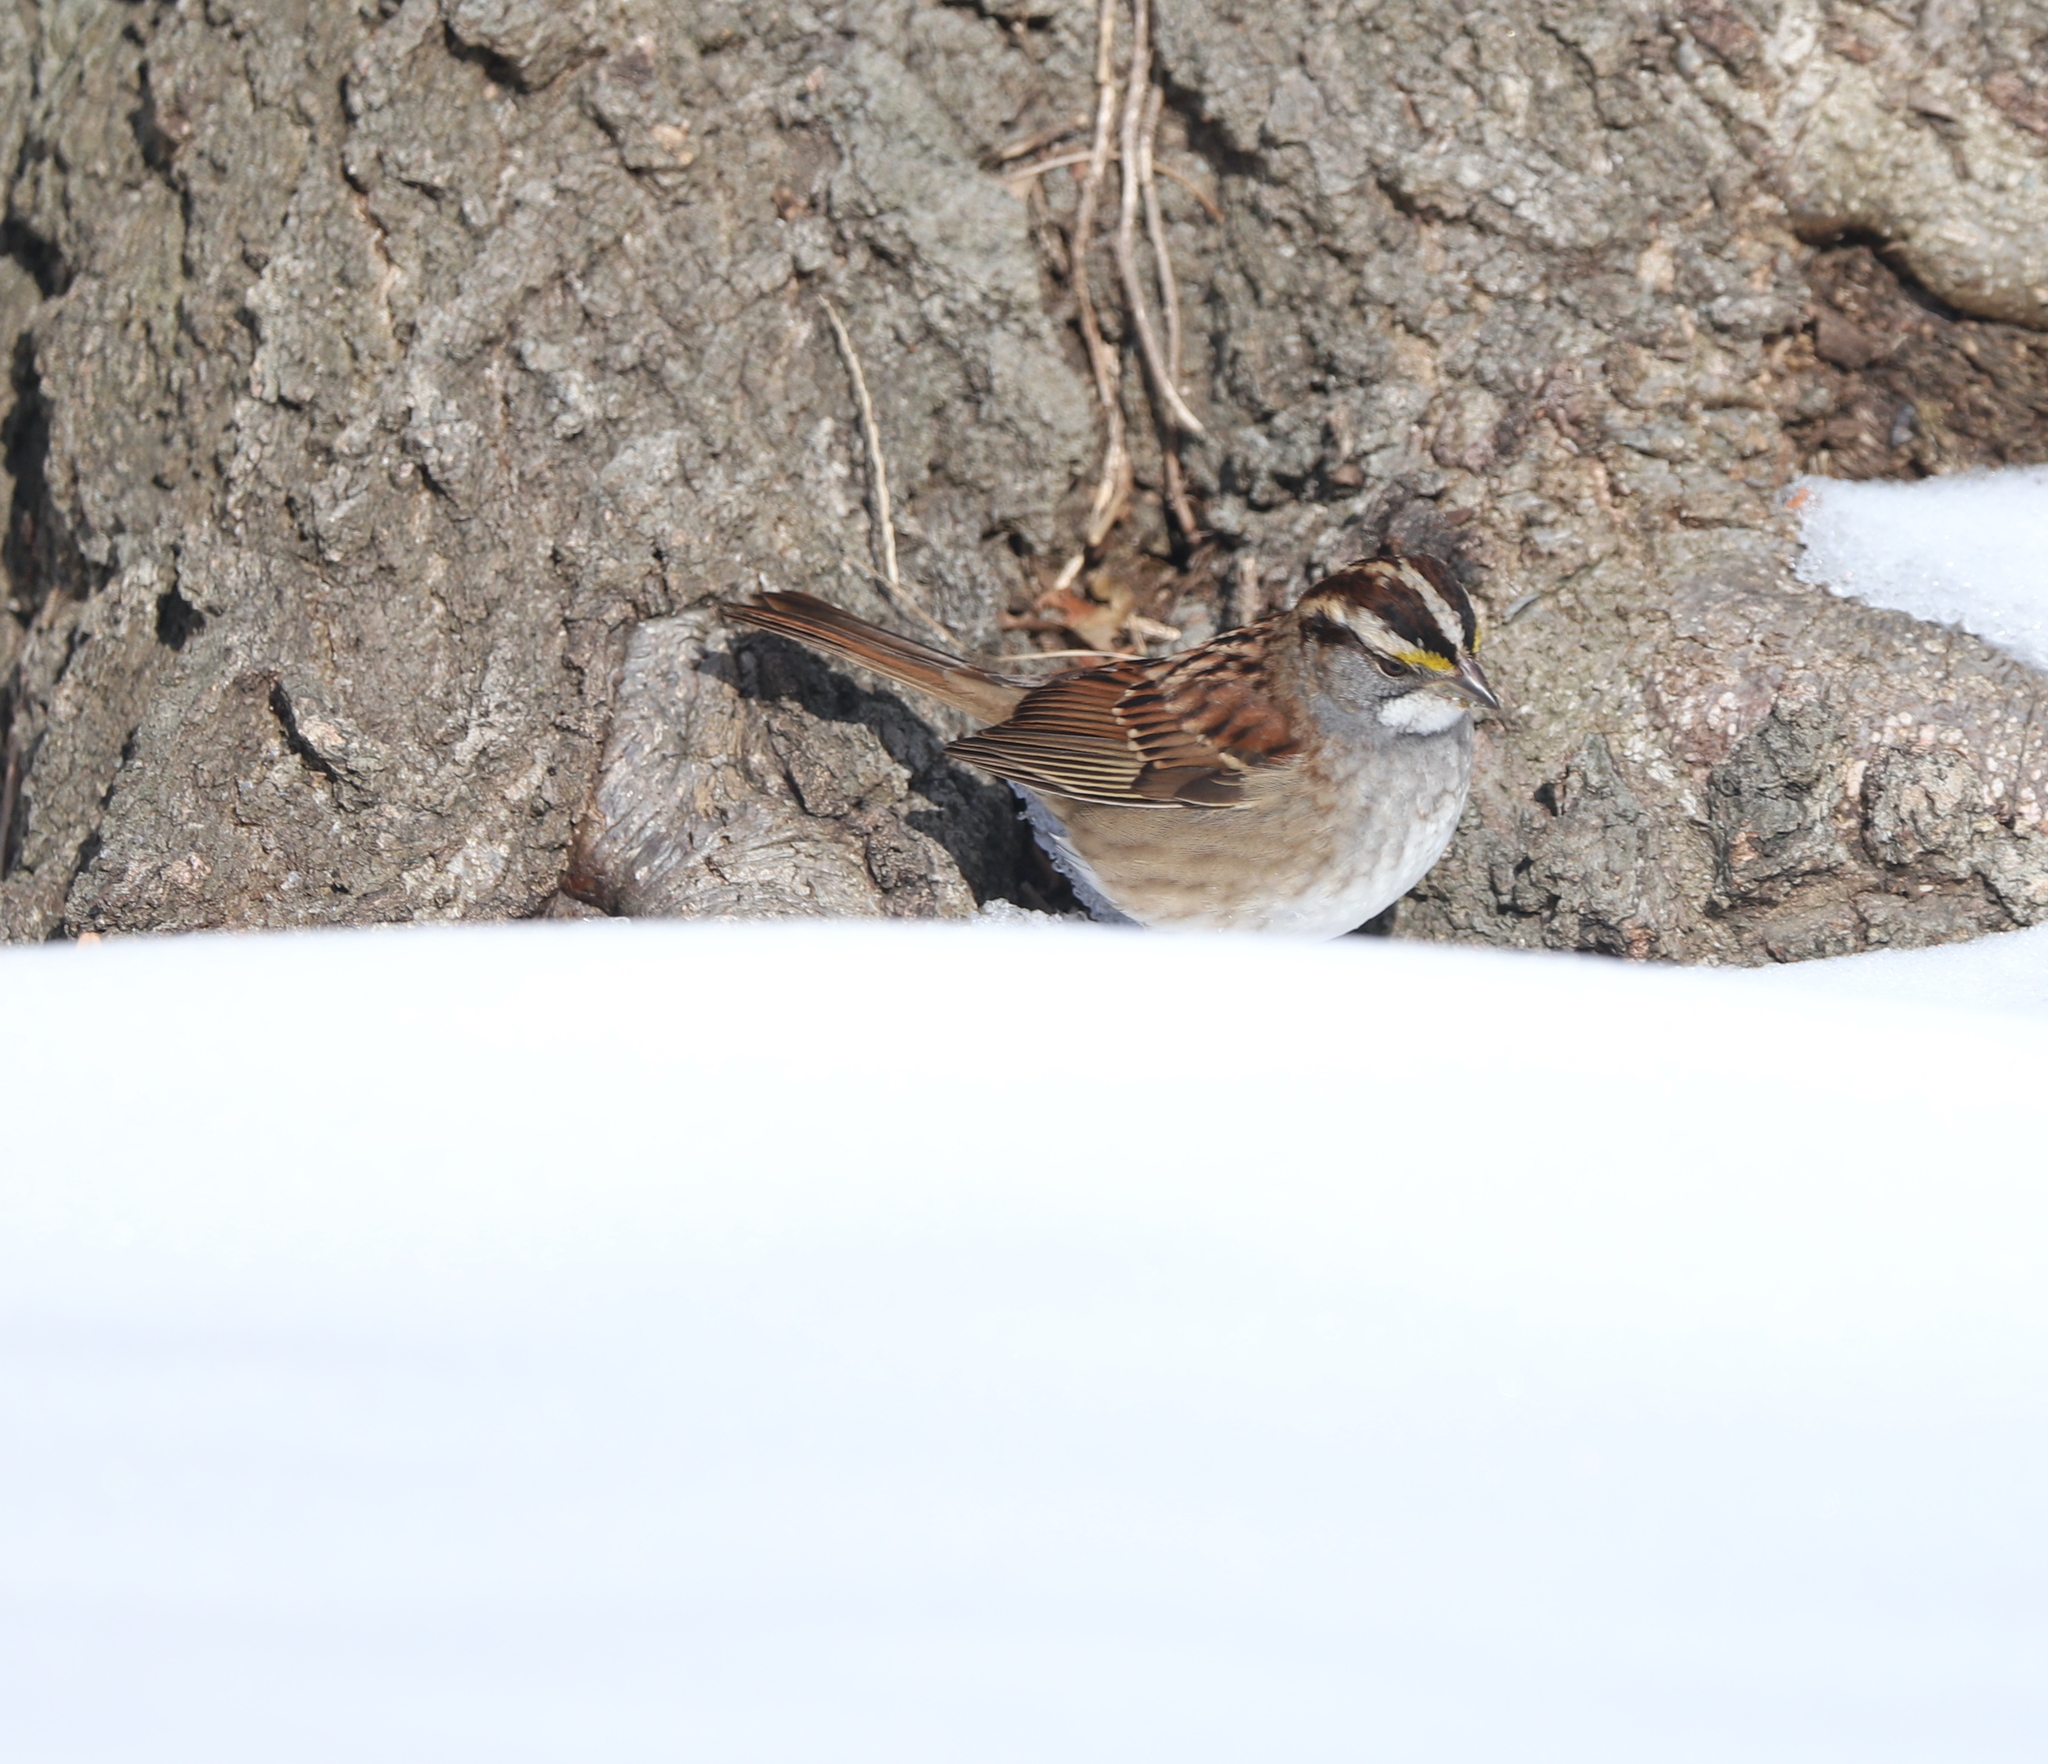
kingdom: Animalia
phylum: Chordata
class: Aves
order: Passeriformes
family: Passerellidae
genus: Zonotrichia
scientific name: Zonotrichia albicollis
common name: White-throated sparrow
